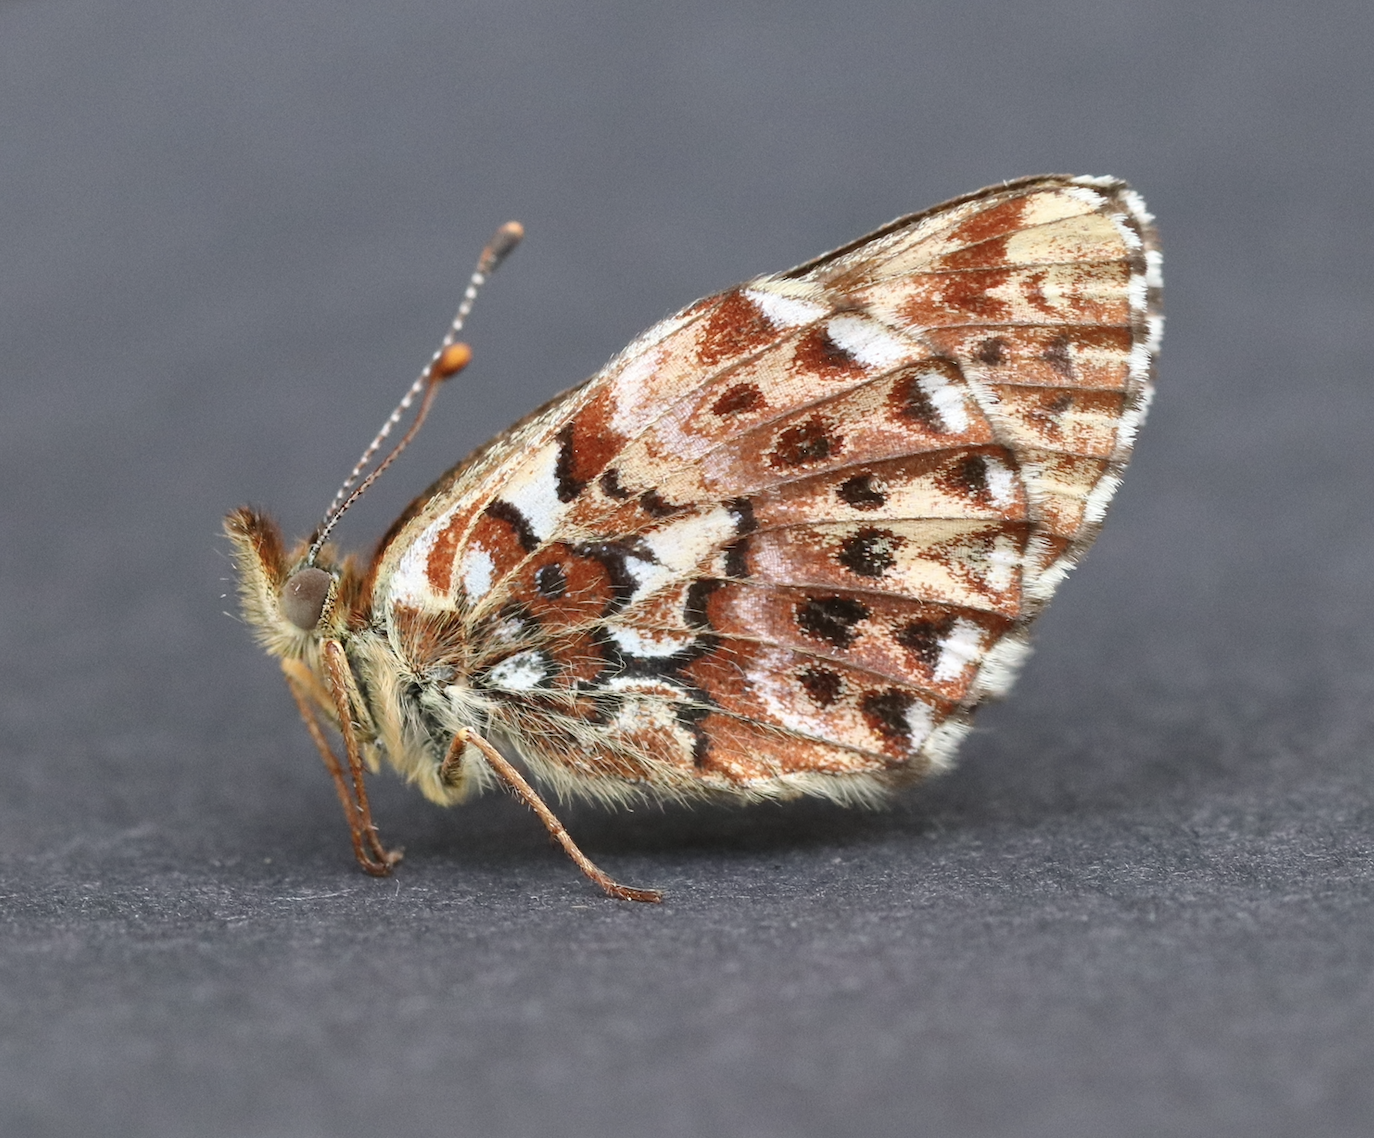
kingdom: Animalia
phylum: Arthropoda
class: Insecta
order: Lepidoptera
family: Nymphalidae
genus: Boloria
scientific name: Boloria chariclea
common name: Arctic fritillary
